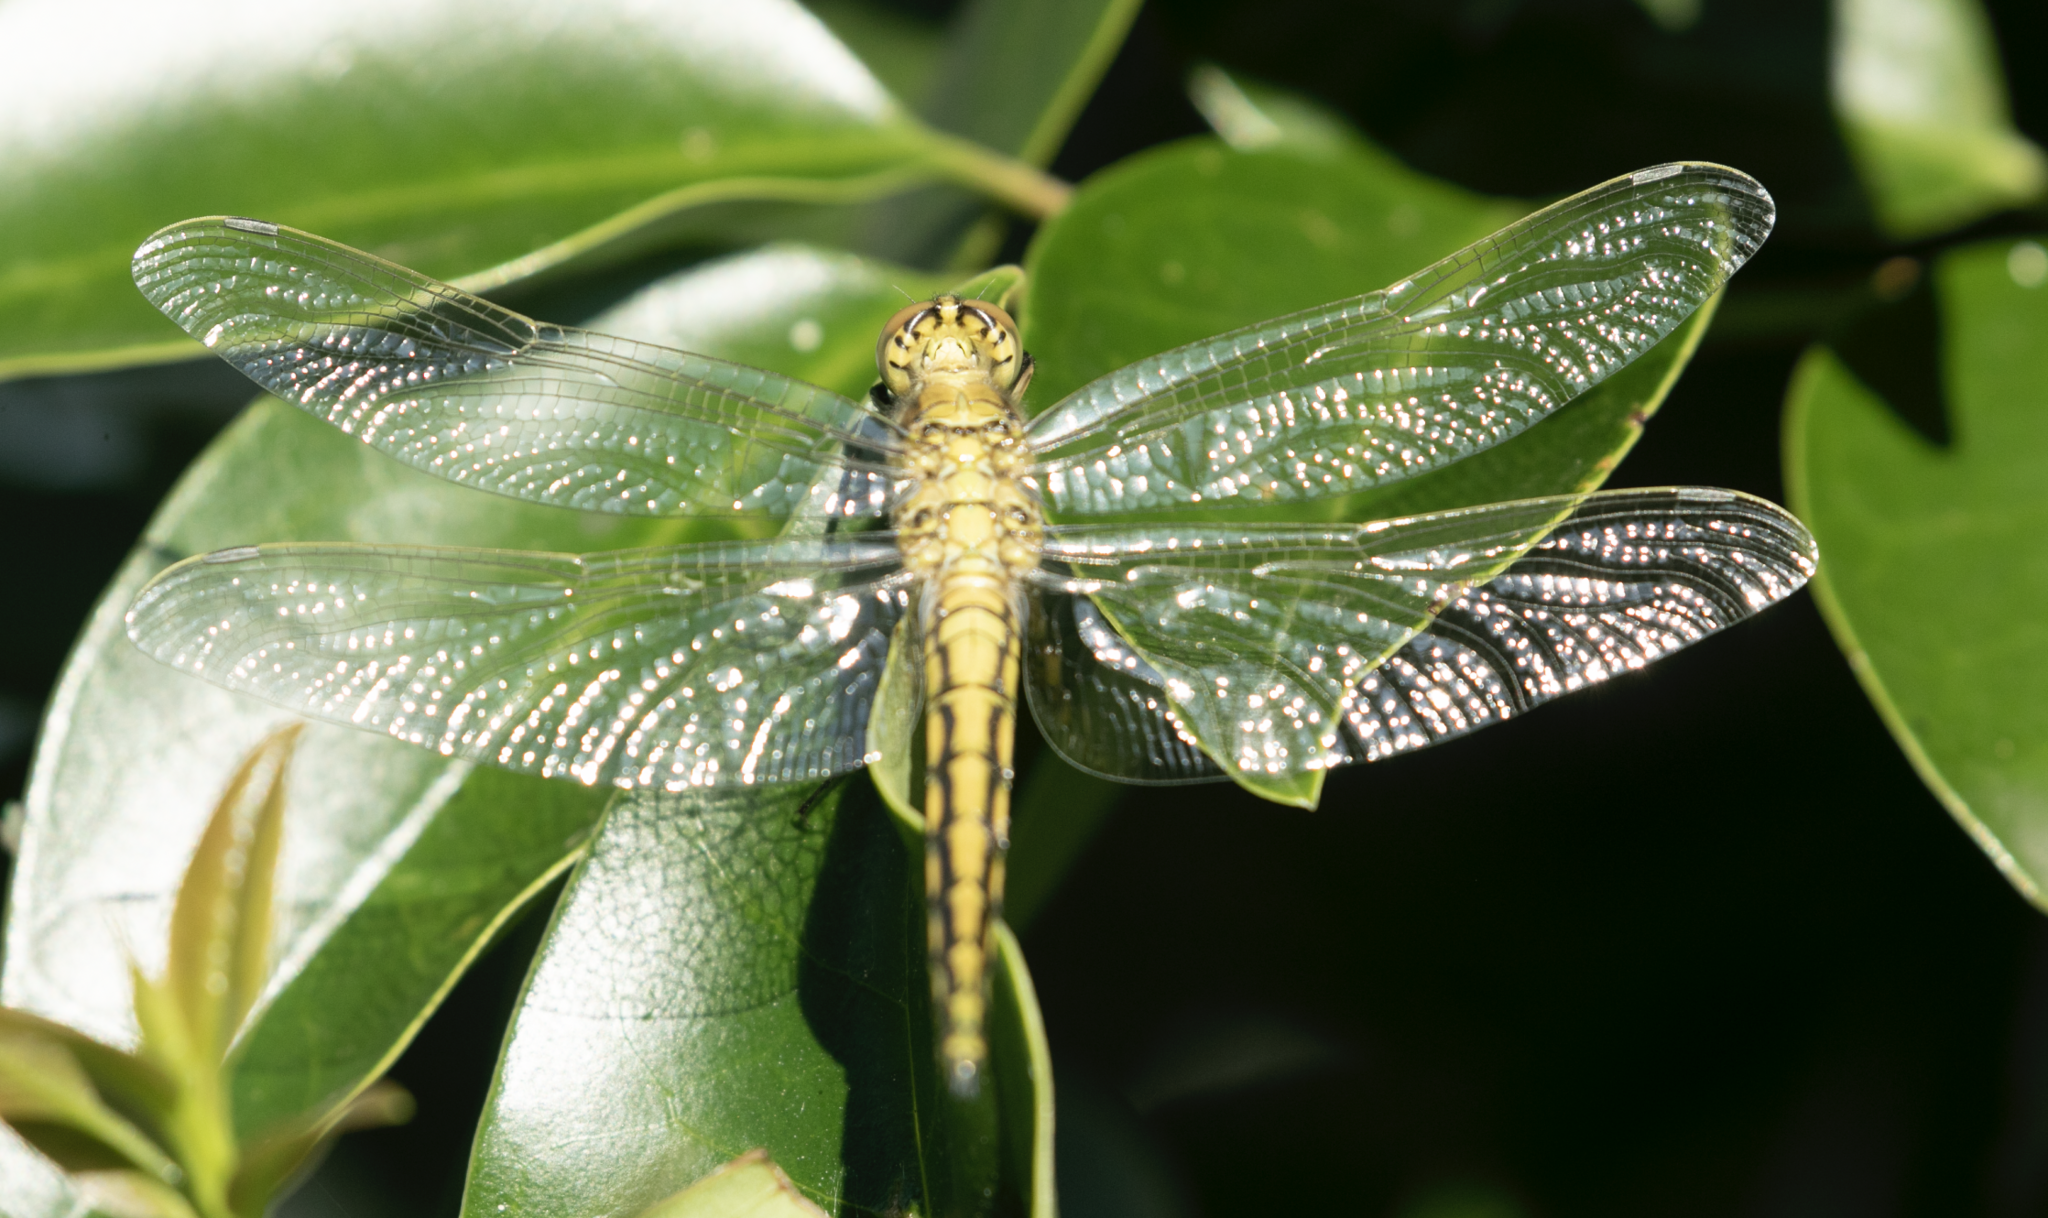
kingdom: Animalia
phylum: Arthropoda
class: Insecta
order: Odonata
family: Libellulidae
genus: Orthetrum
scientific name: Orthetrum cancellatum
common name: Black-tailed skimmer
